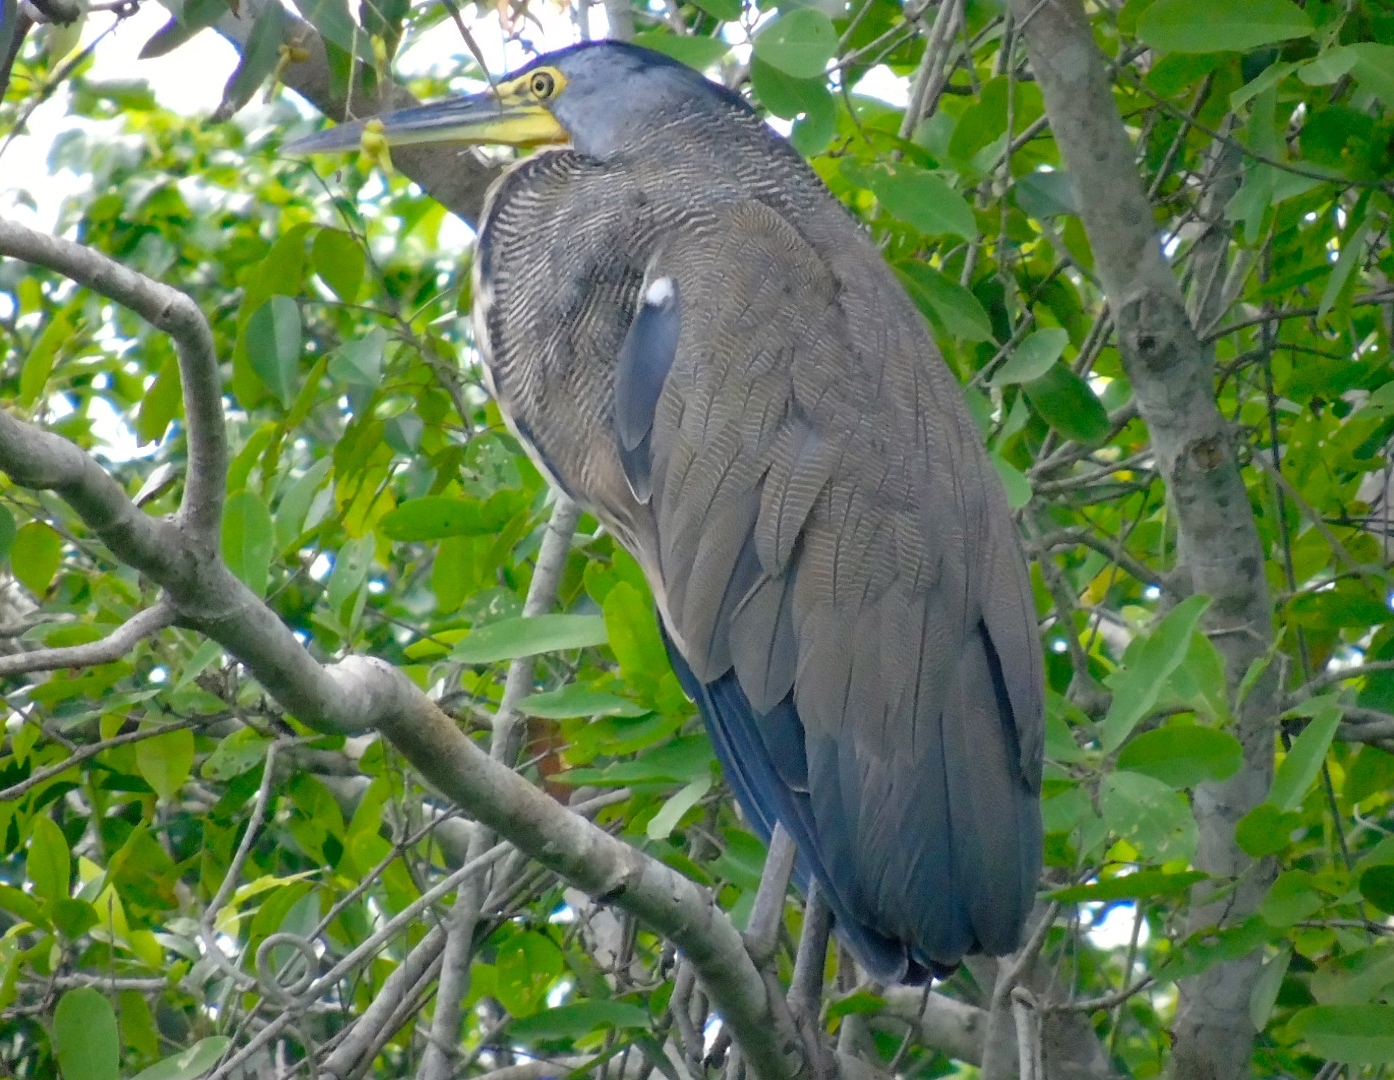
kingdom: Animalia
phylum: Chordata
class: Aves
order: Pelecaniformes
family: Ardeidae
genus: Tigrisoma
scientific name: Tigrisoma mexicanum
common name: Bare-throated tiger-heron
